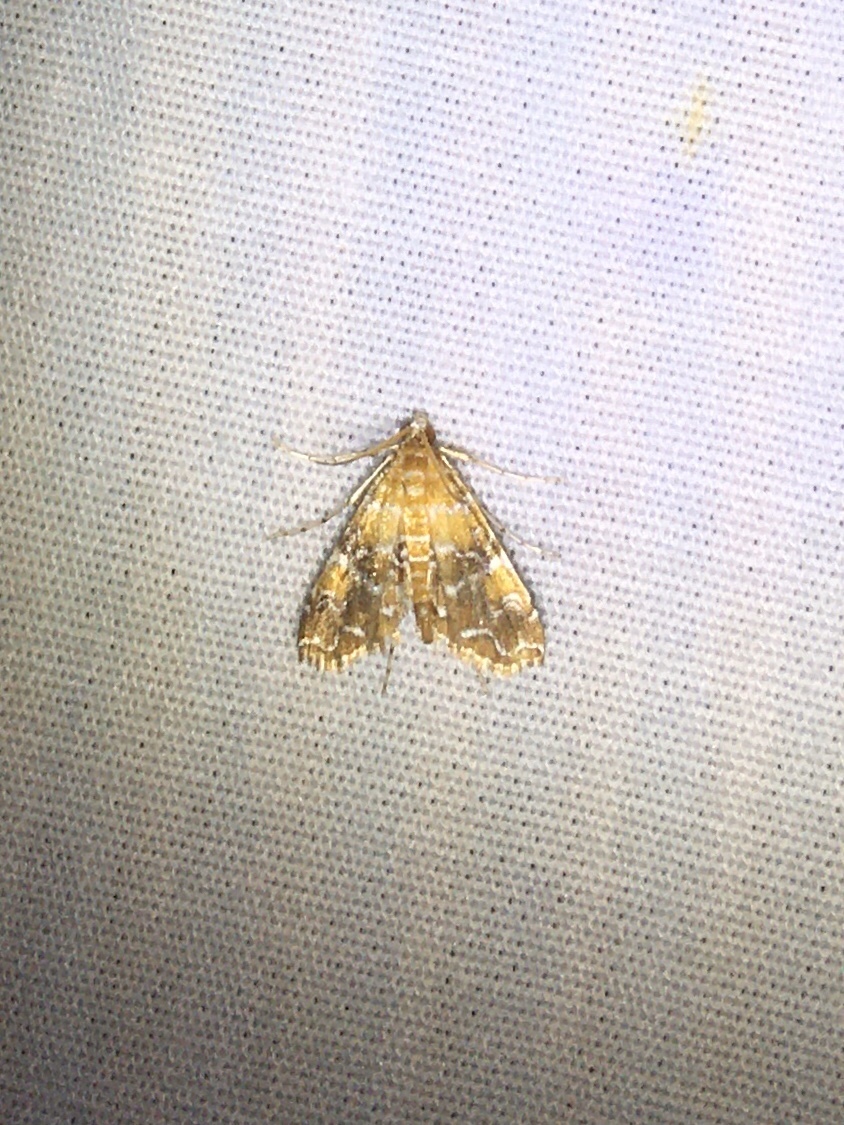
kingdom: Animalia
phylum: Arthropoda
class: Insecta
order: Lepidoptera
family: Crambidae
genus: Elophila
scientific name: Elophila nebulosalis
